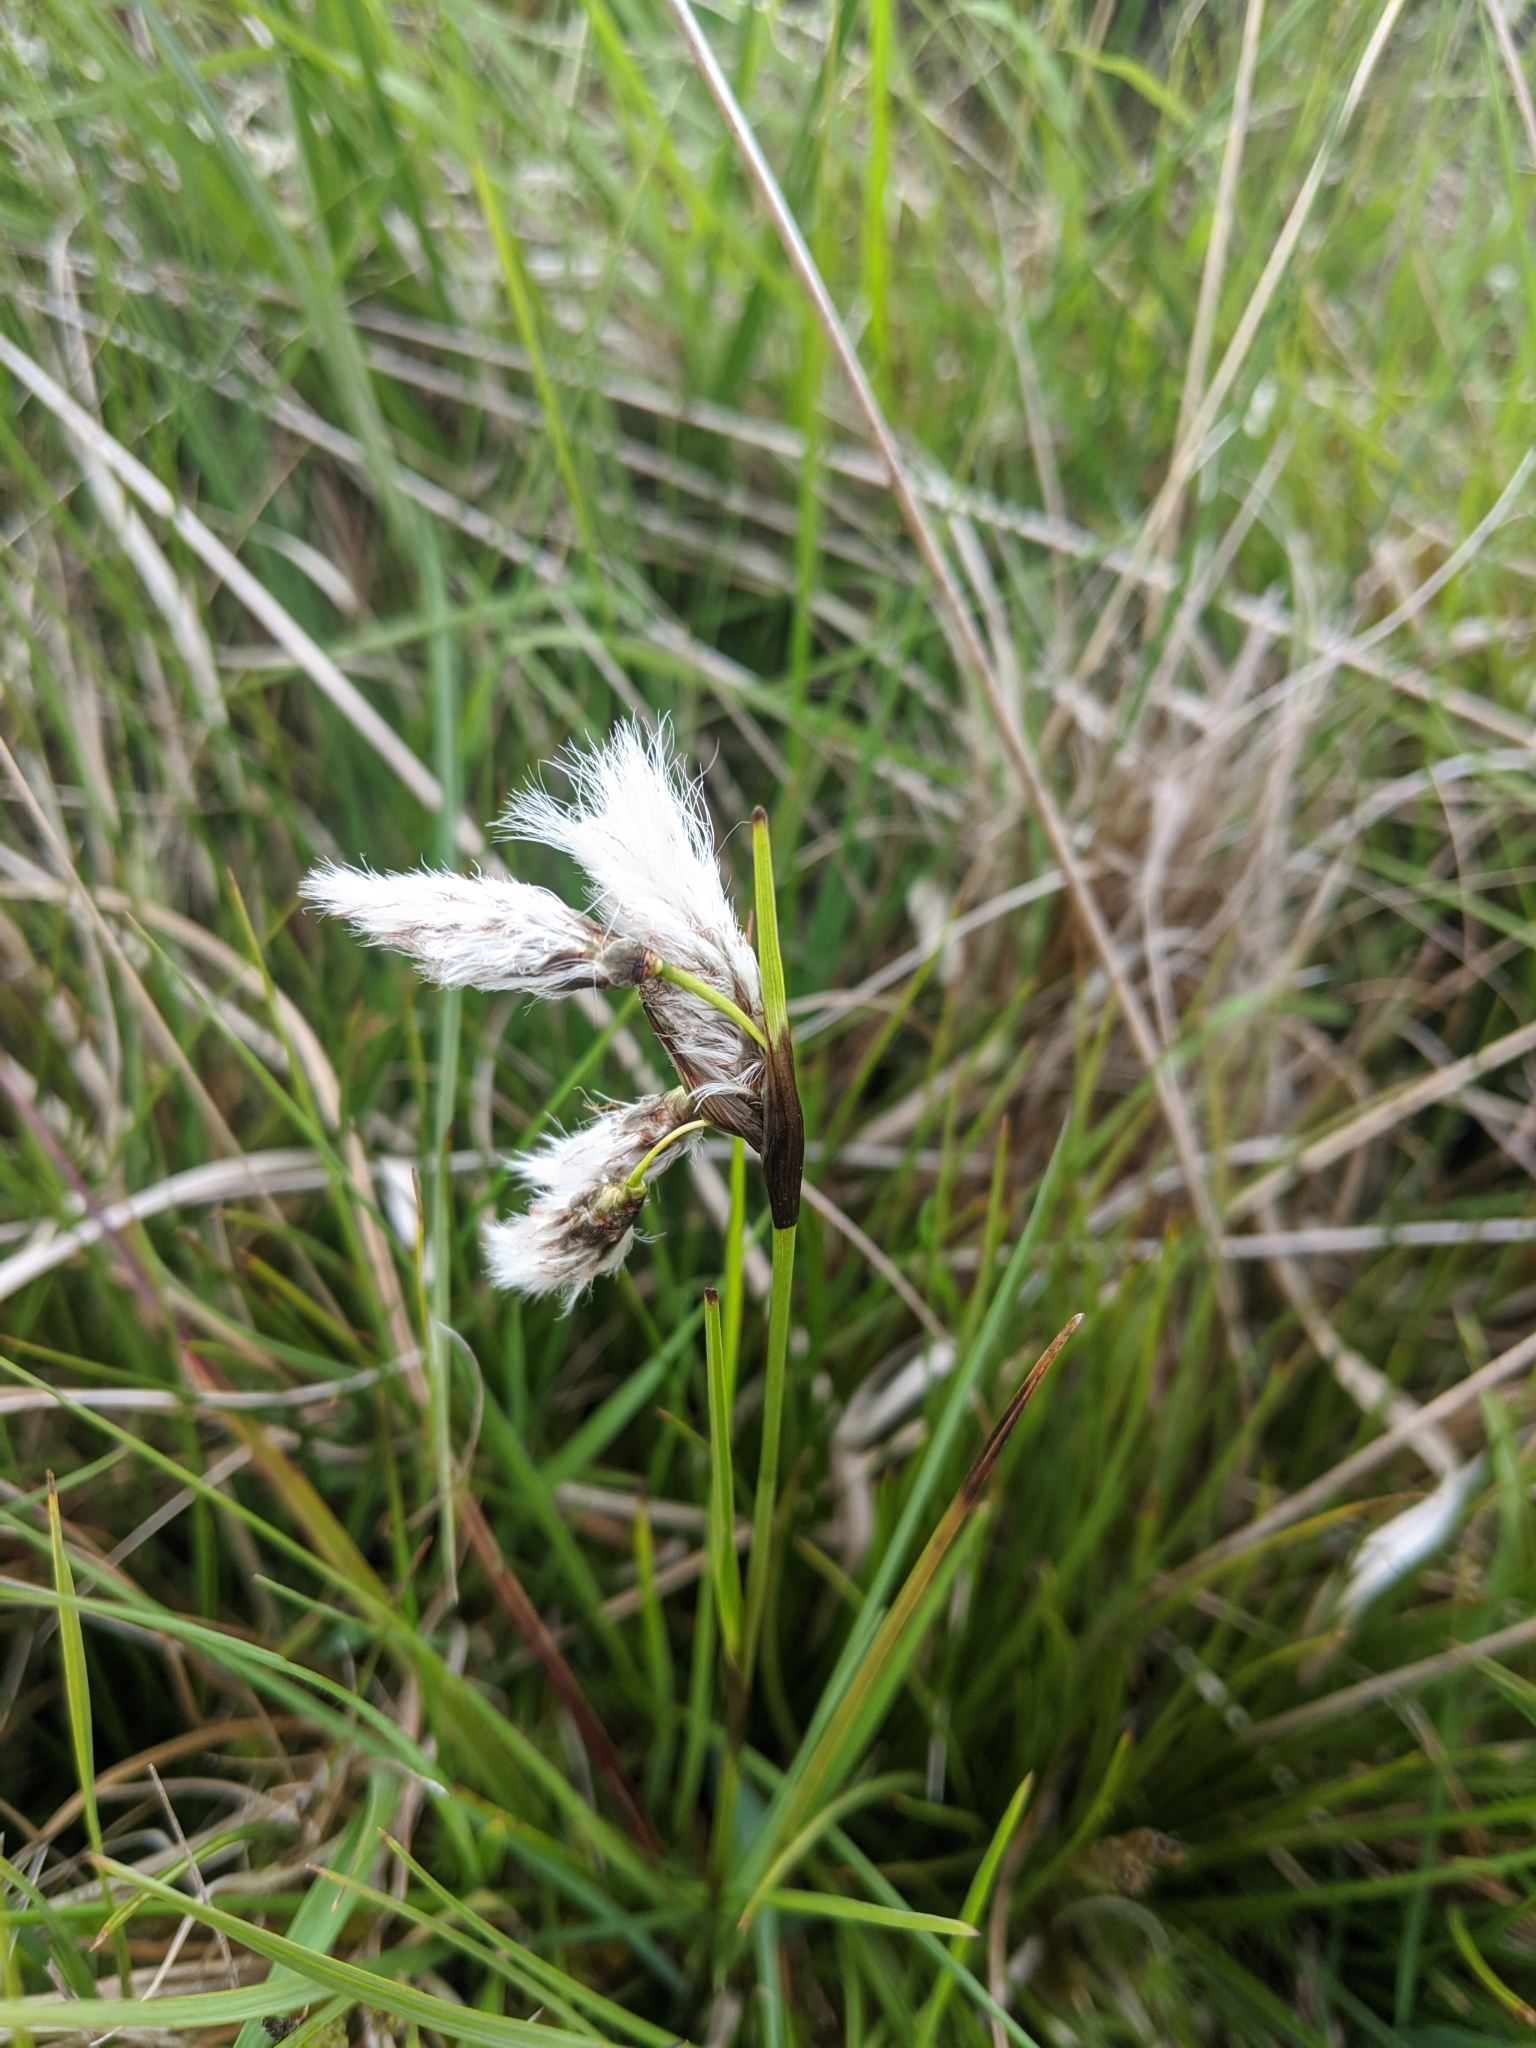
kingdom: Plantae
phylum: Tracheophyta
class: Liliopsida
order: Poales
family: Cyperaceae
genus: Eriophorum
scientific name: Eriophorum angustifolium
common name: Common cottongrass
